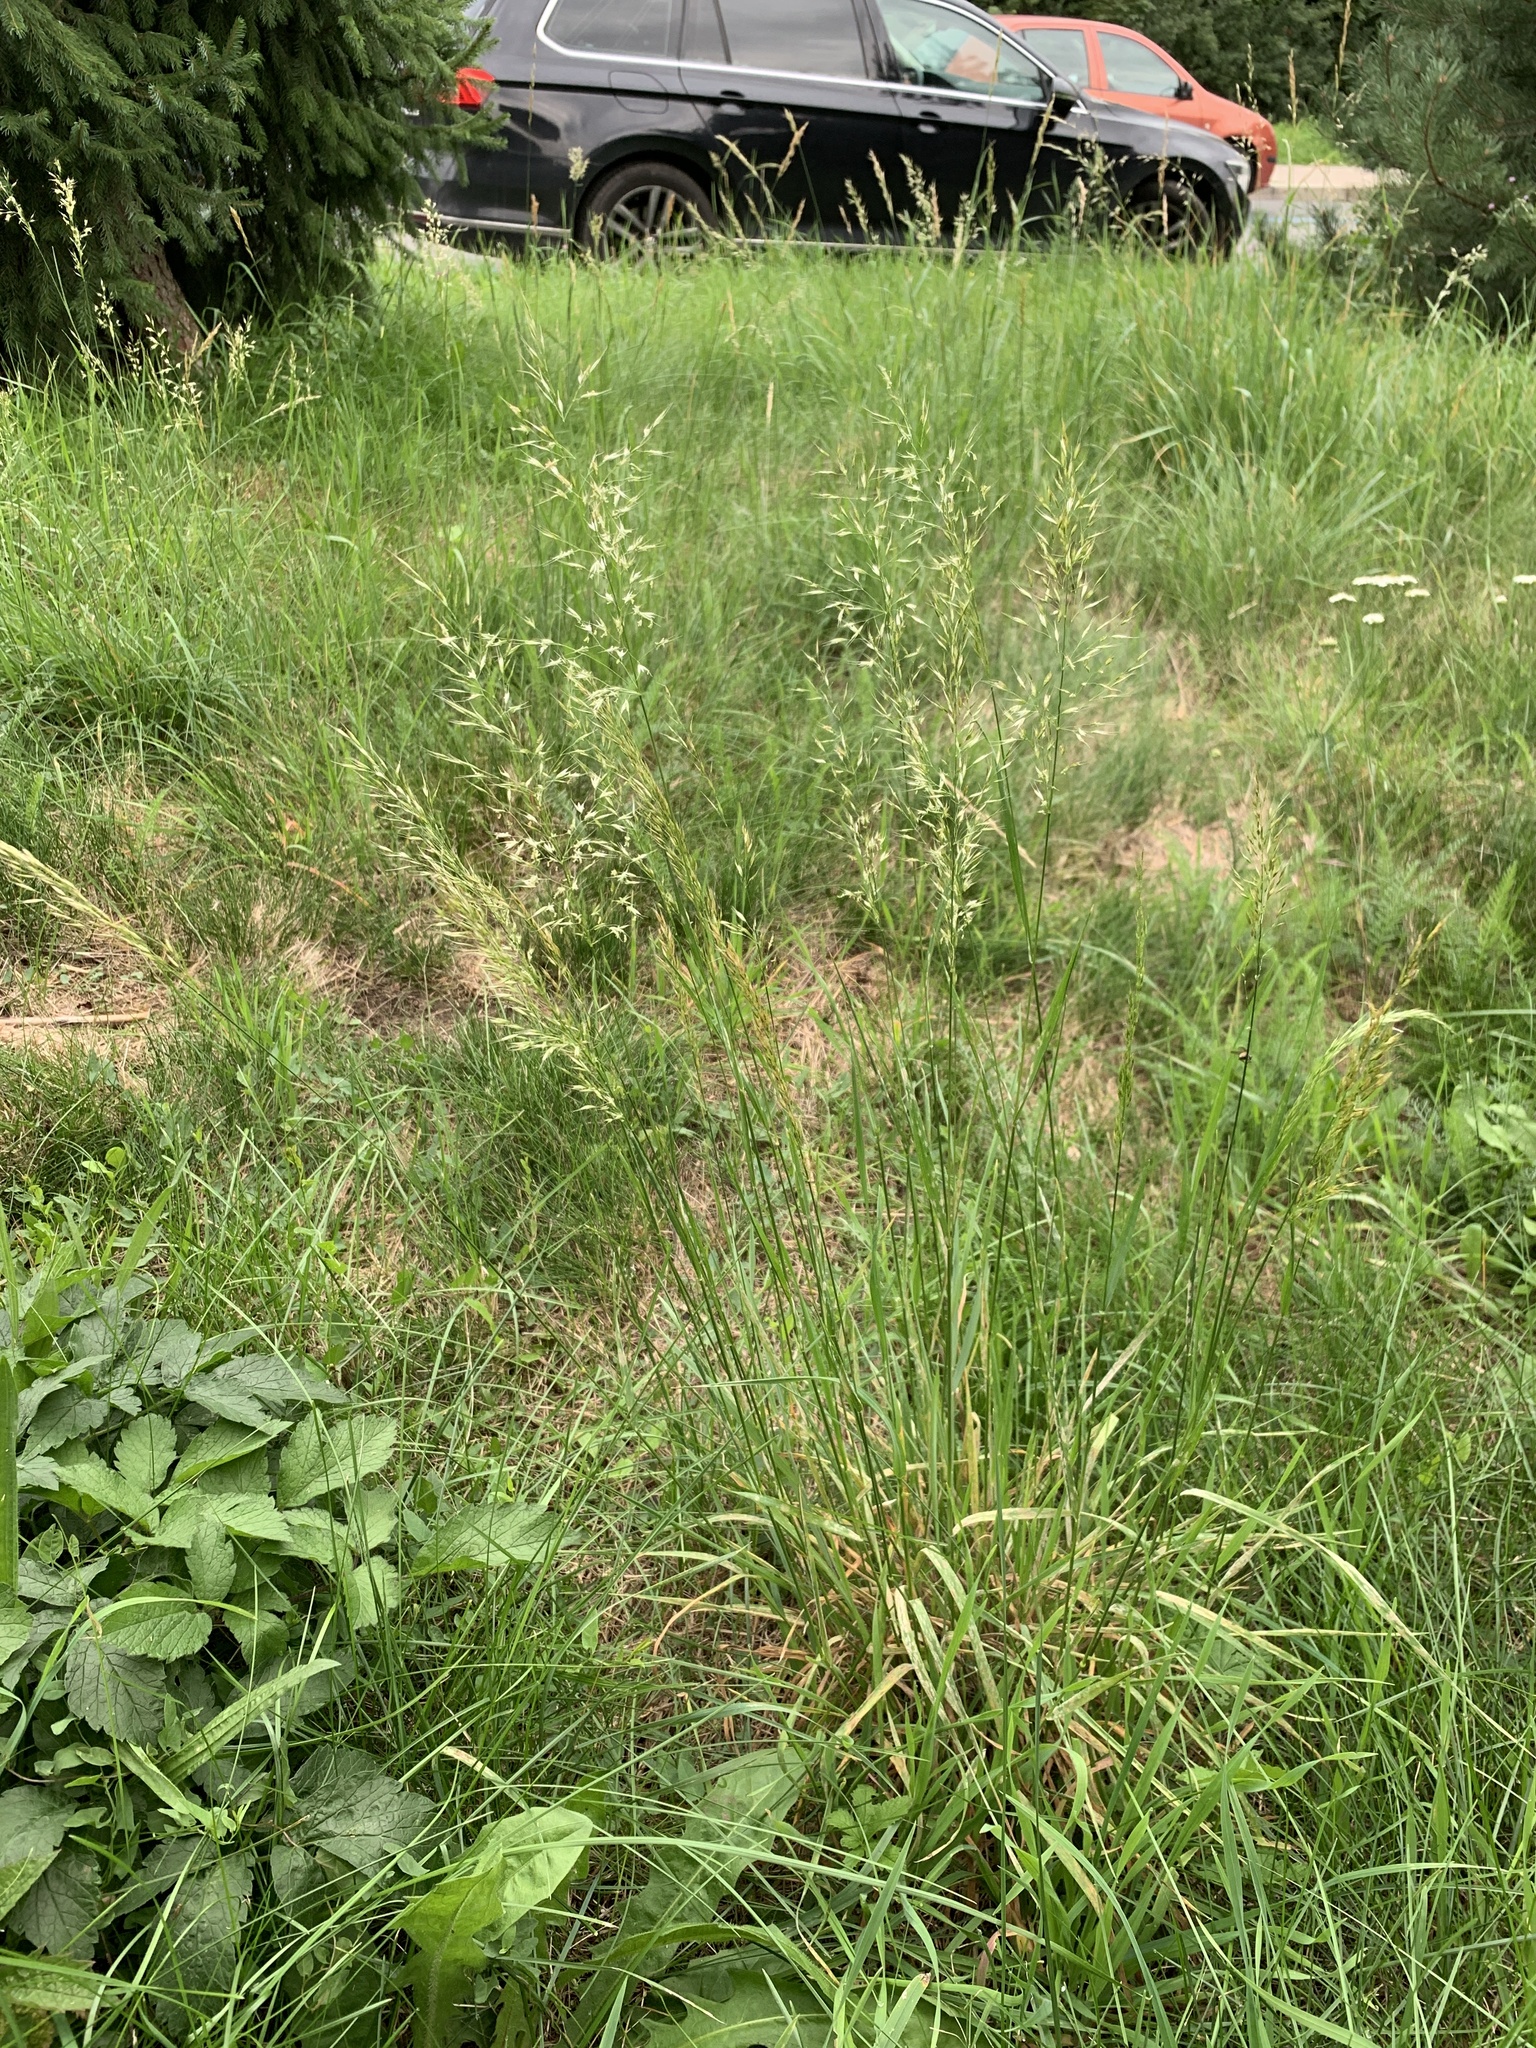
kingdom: Plantae
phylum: Tracheophyta
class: Liliopsida
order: Poales
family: Poaceae
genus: Trisetum
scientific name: Trisetum flavescens
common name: Yellow oat-grass
